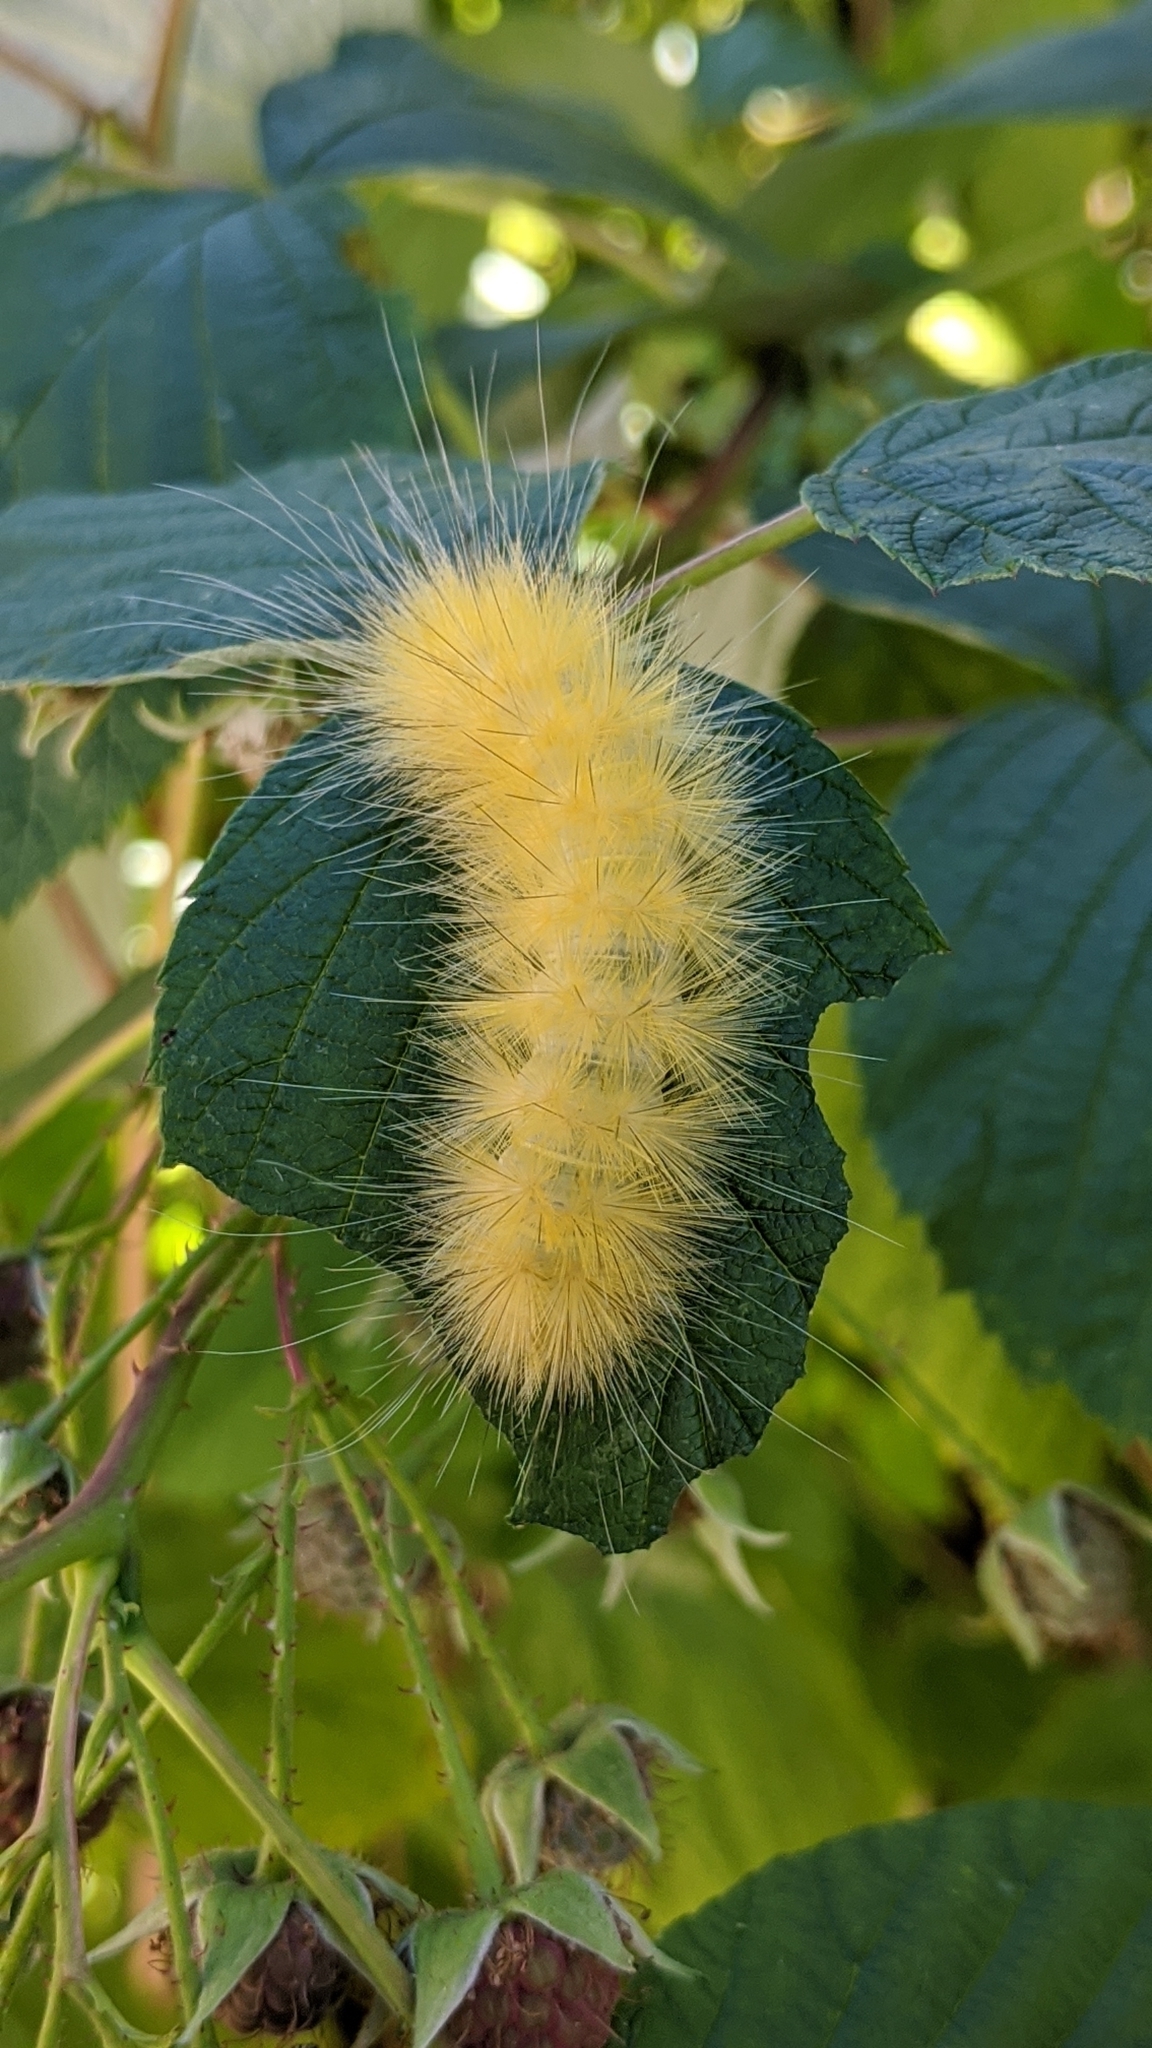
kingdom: Animalia
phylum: Arthropoda
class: Insecta
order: Lepidoptera
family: Erebidae
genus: Spilosoma
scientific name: Spilosoma virginica
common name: Virginia tiger moth
